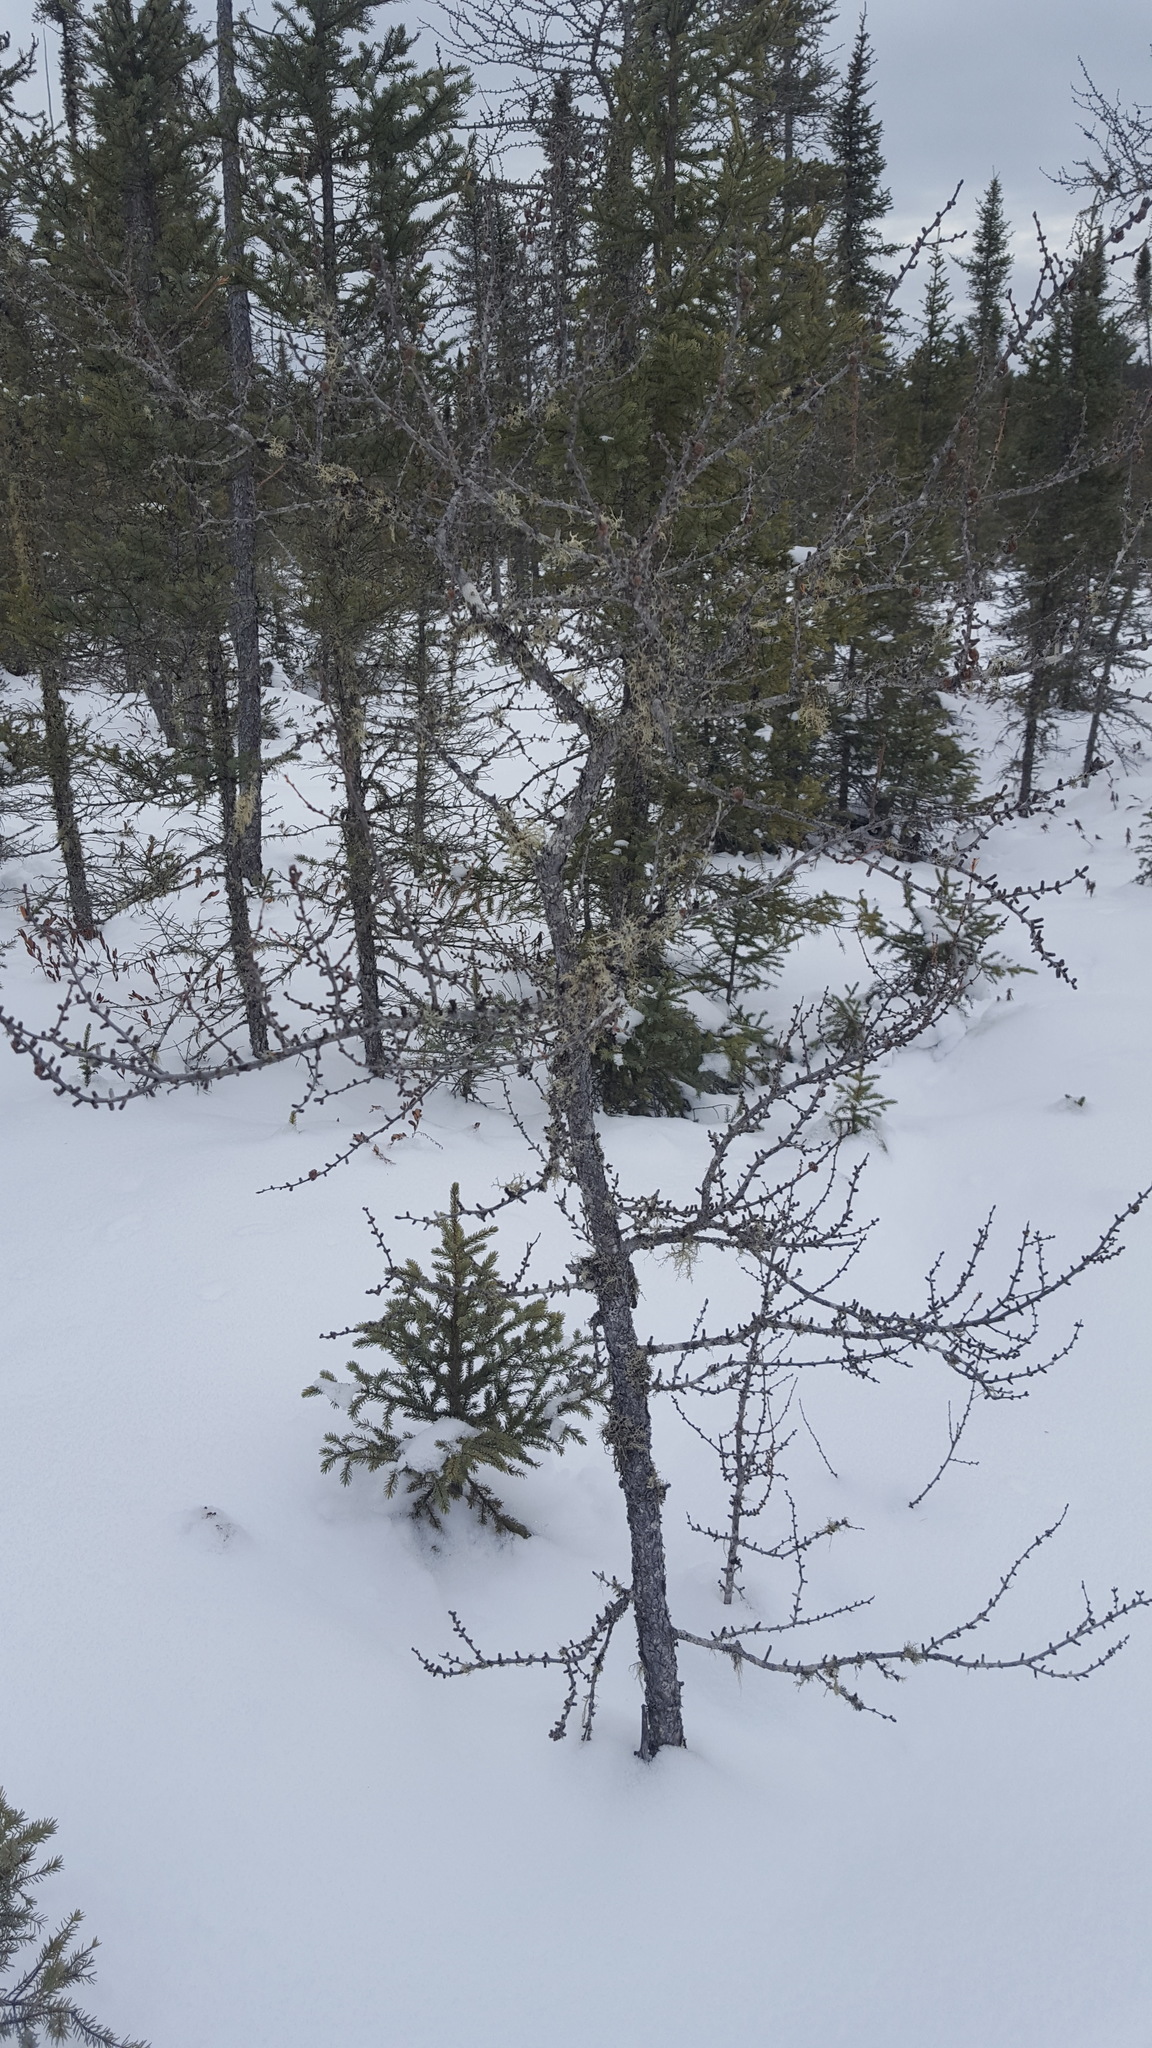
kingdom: Plantae
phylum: Tracheophyta
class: Pinopsida
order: Pinales
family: Pinaceae
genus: Larix
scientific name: Larix laricina
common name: American larch
